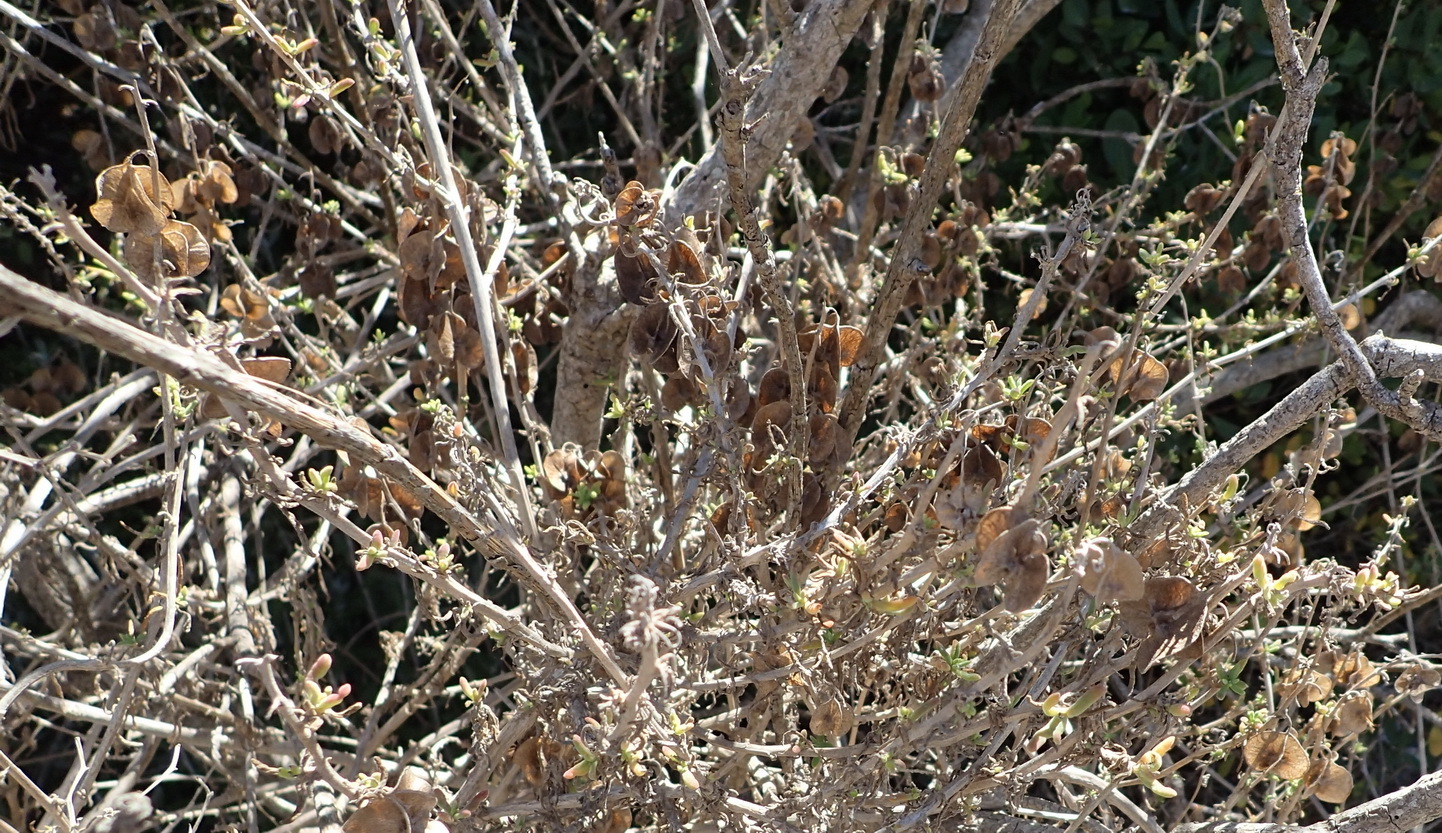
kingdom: Plantae
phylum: Tracheophyta
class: Magnoliopsida
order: Caryophyllales
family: Aizoaceae
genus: Tetragonia
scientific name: Tetragonia fruticosa
